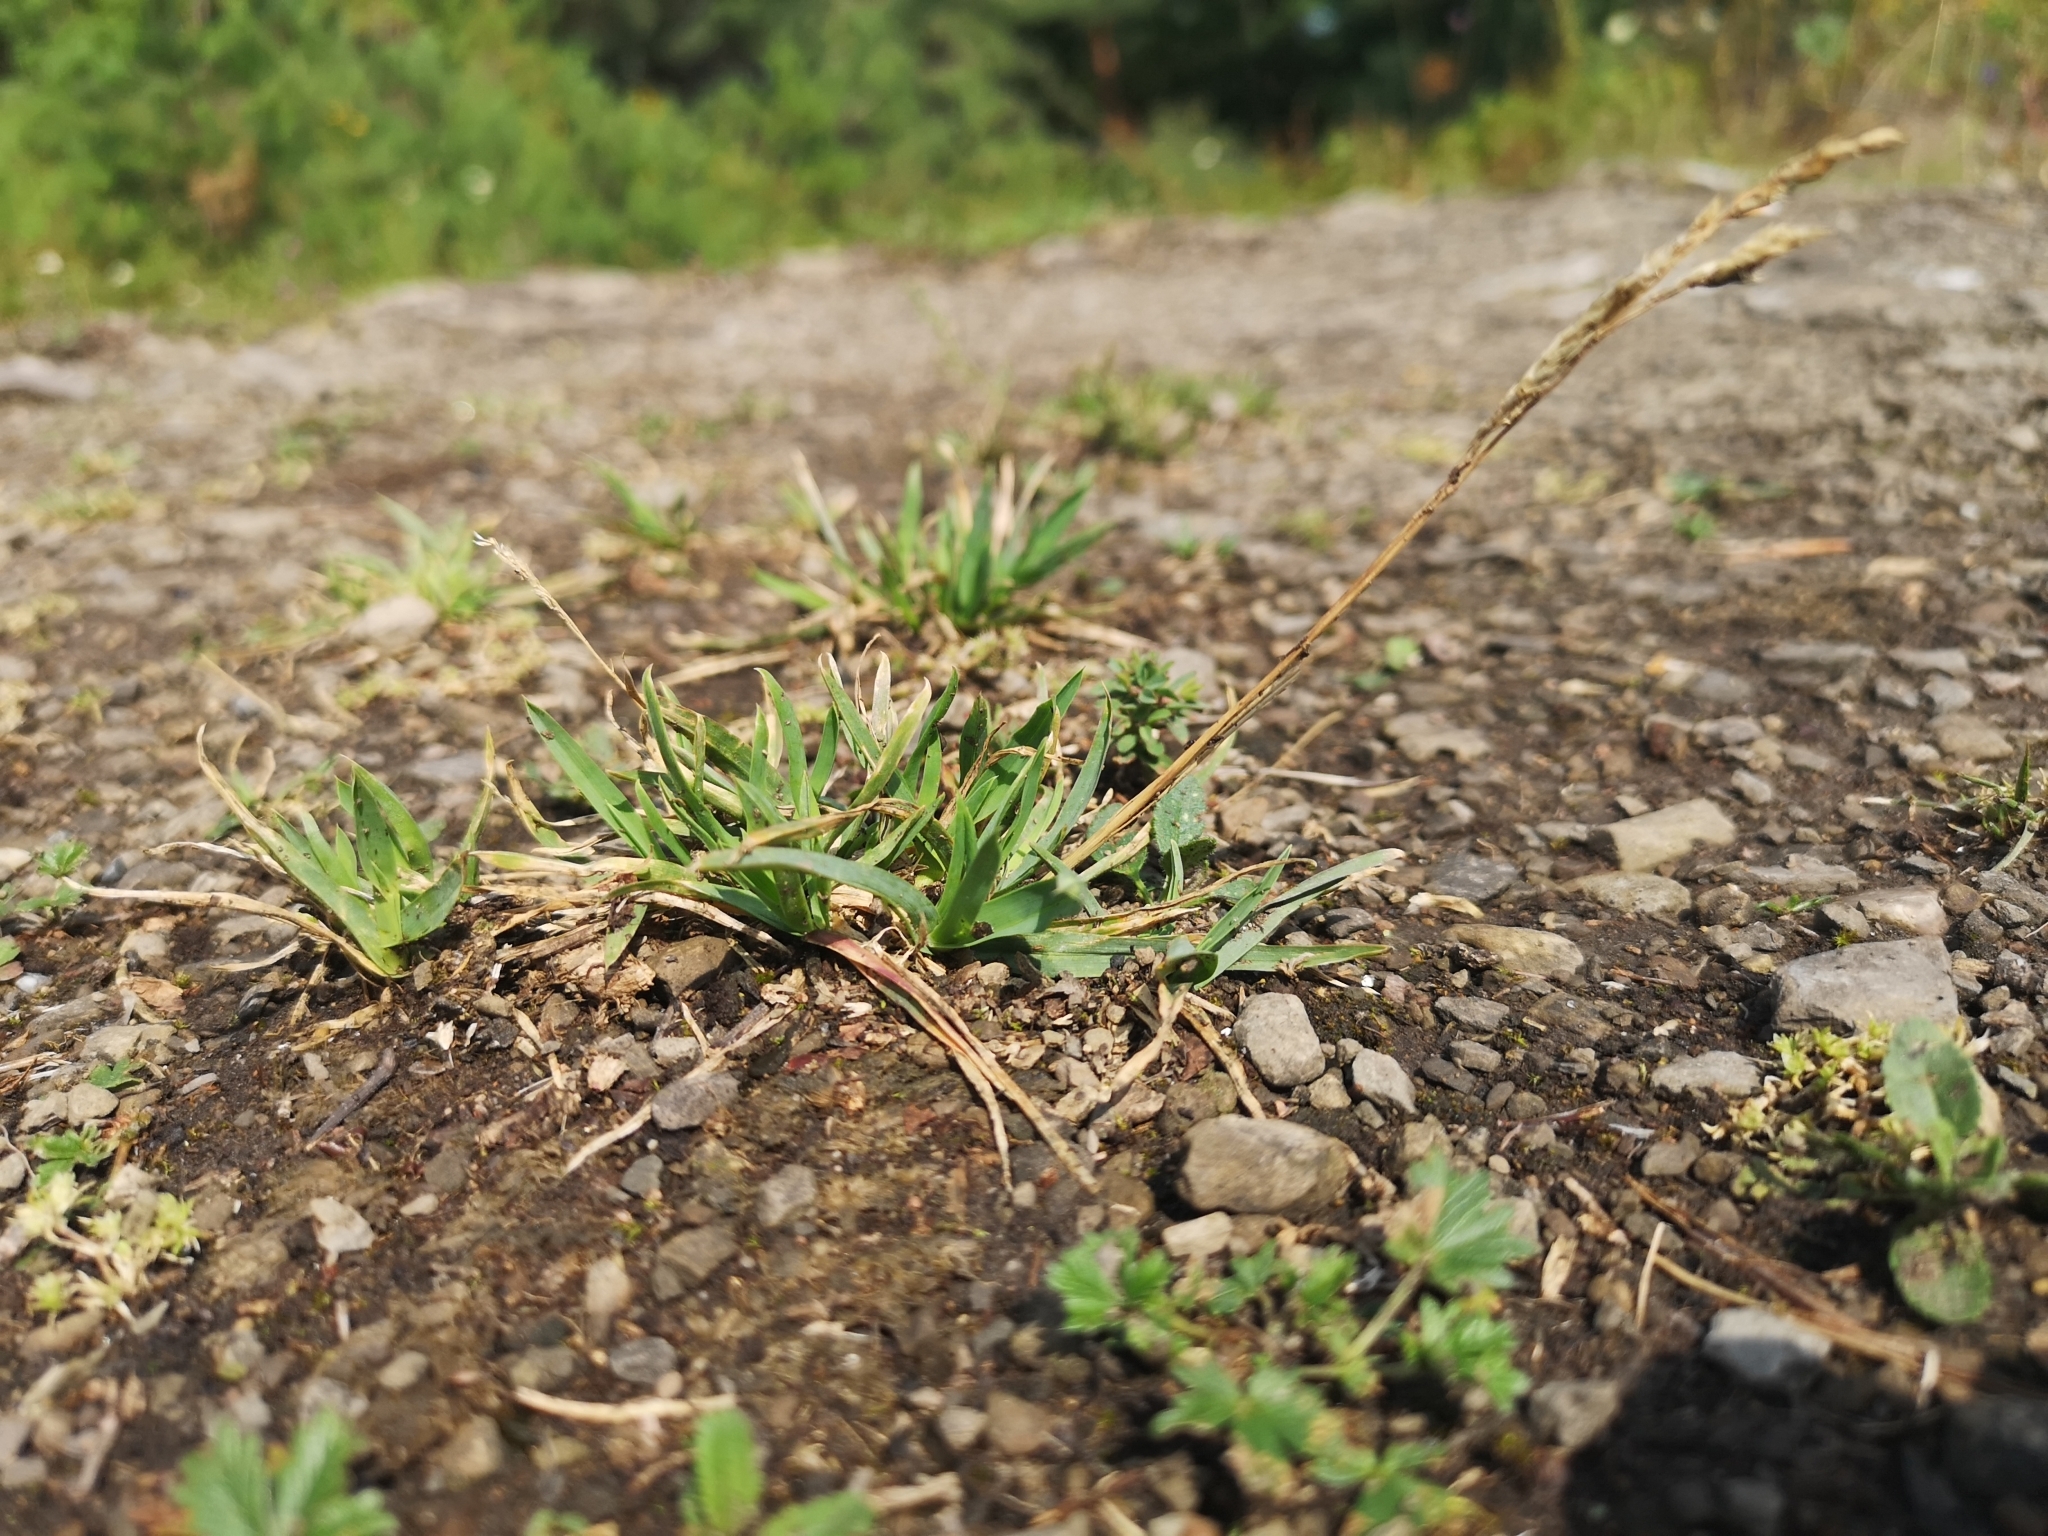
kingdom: Plantae
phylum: Tracheophyta
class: Liliopsida
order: Poales
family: Poaceae
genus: Poa
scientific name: Poa alpina
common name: Alpine bluegrass
